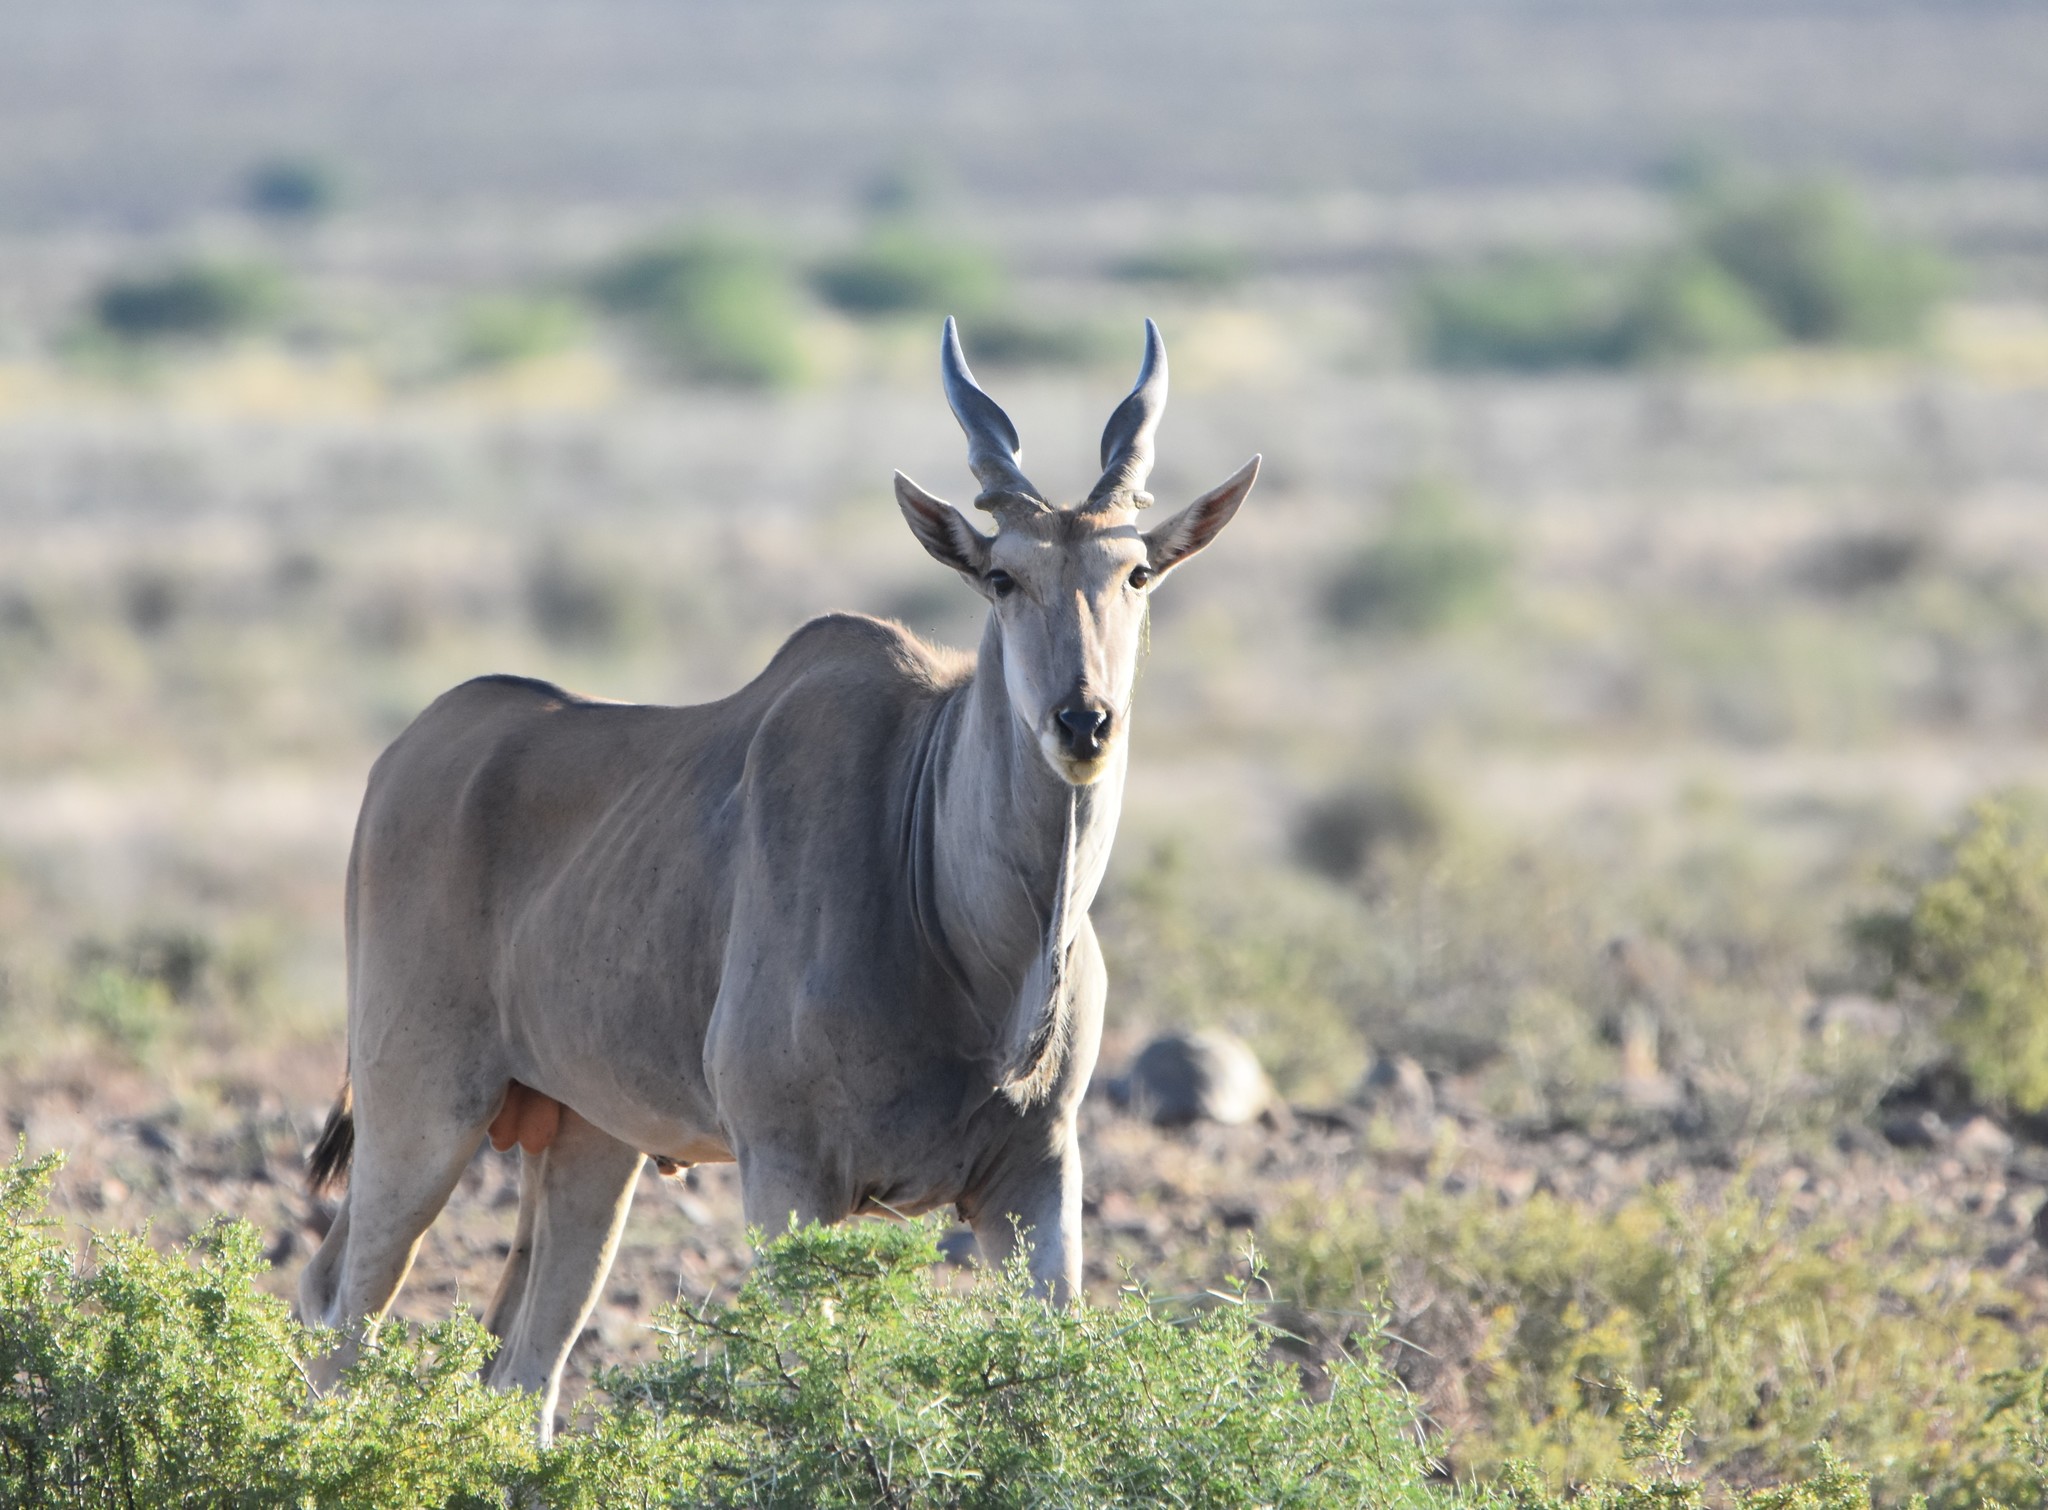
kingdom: Animalia
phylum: Chordata
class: Mammalia
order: Artiodactyla
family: Bovidae
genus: Taurotragus
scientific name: Taurotragus oryx
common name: Common eland
